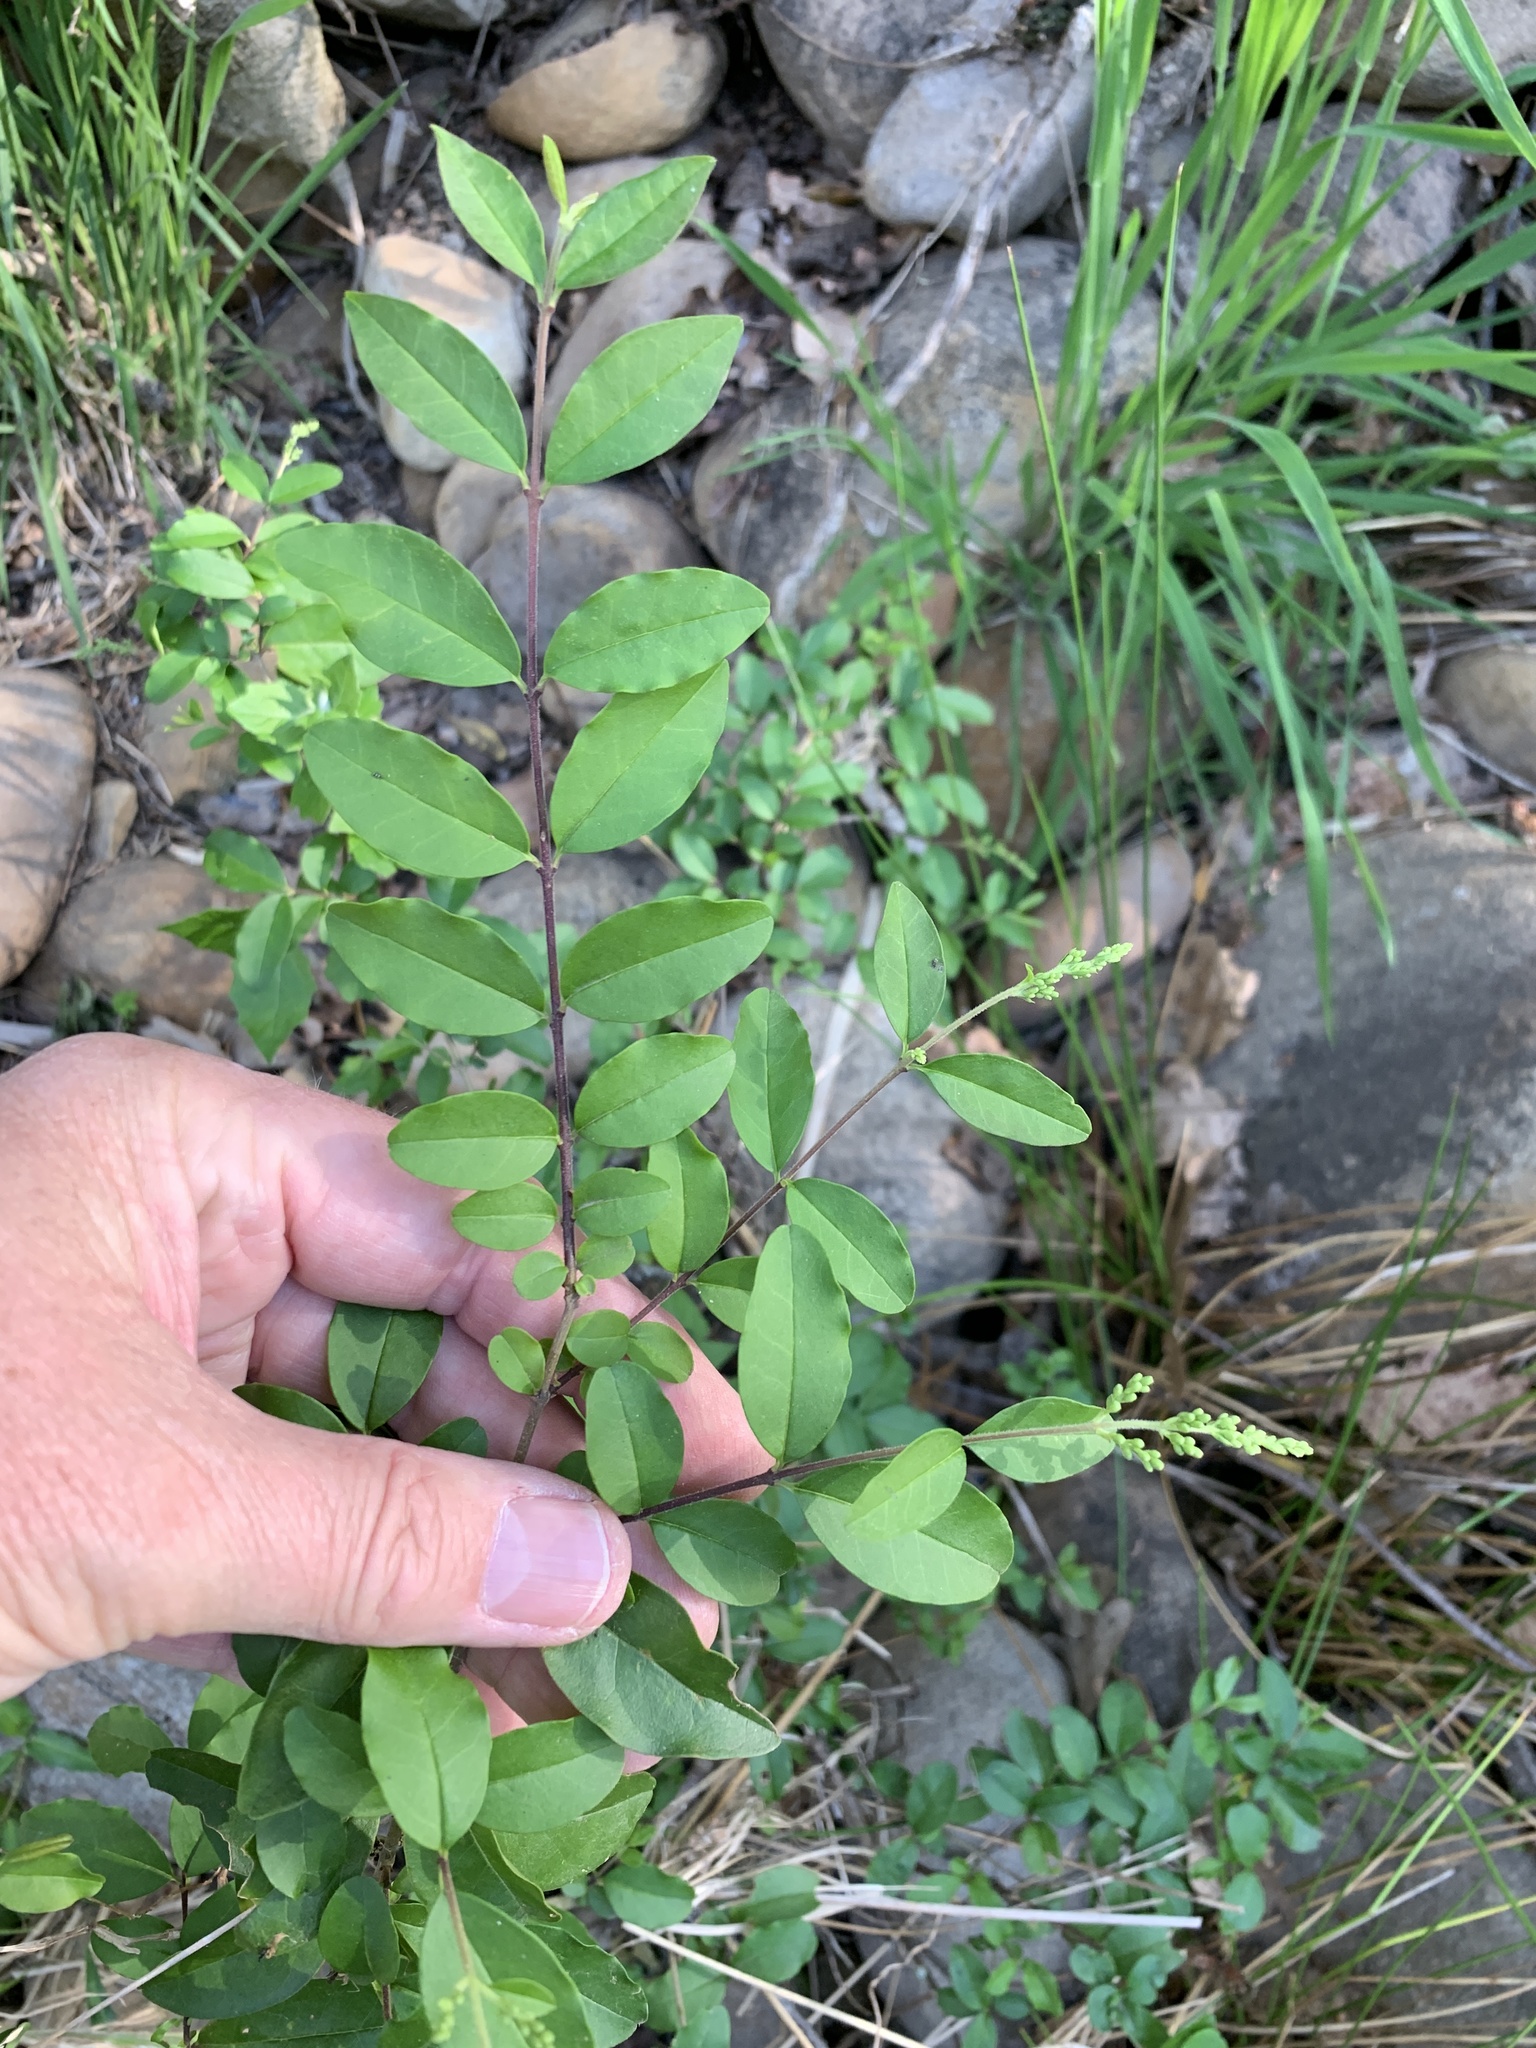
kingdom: Plantae
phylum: Tracheophyta
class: Magnoliopsida
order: Lamiales
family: Oleaceae
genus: Ligustrum
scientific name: Ligustrum sinense
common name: Chinese privet
